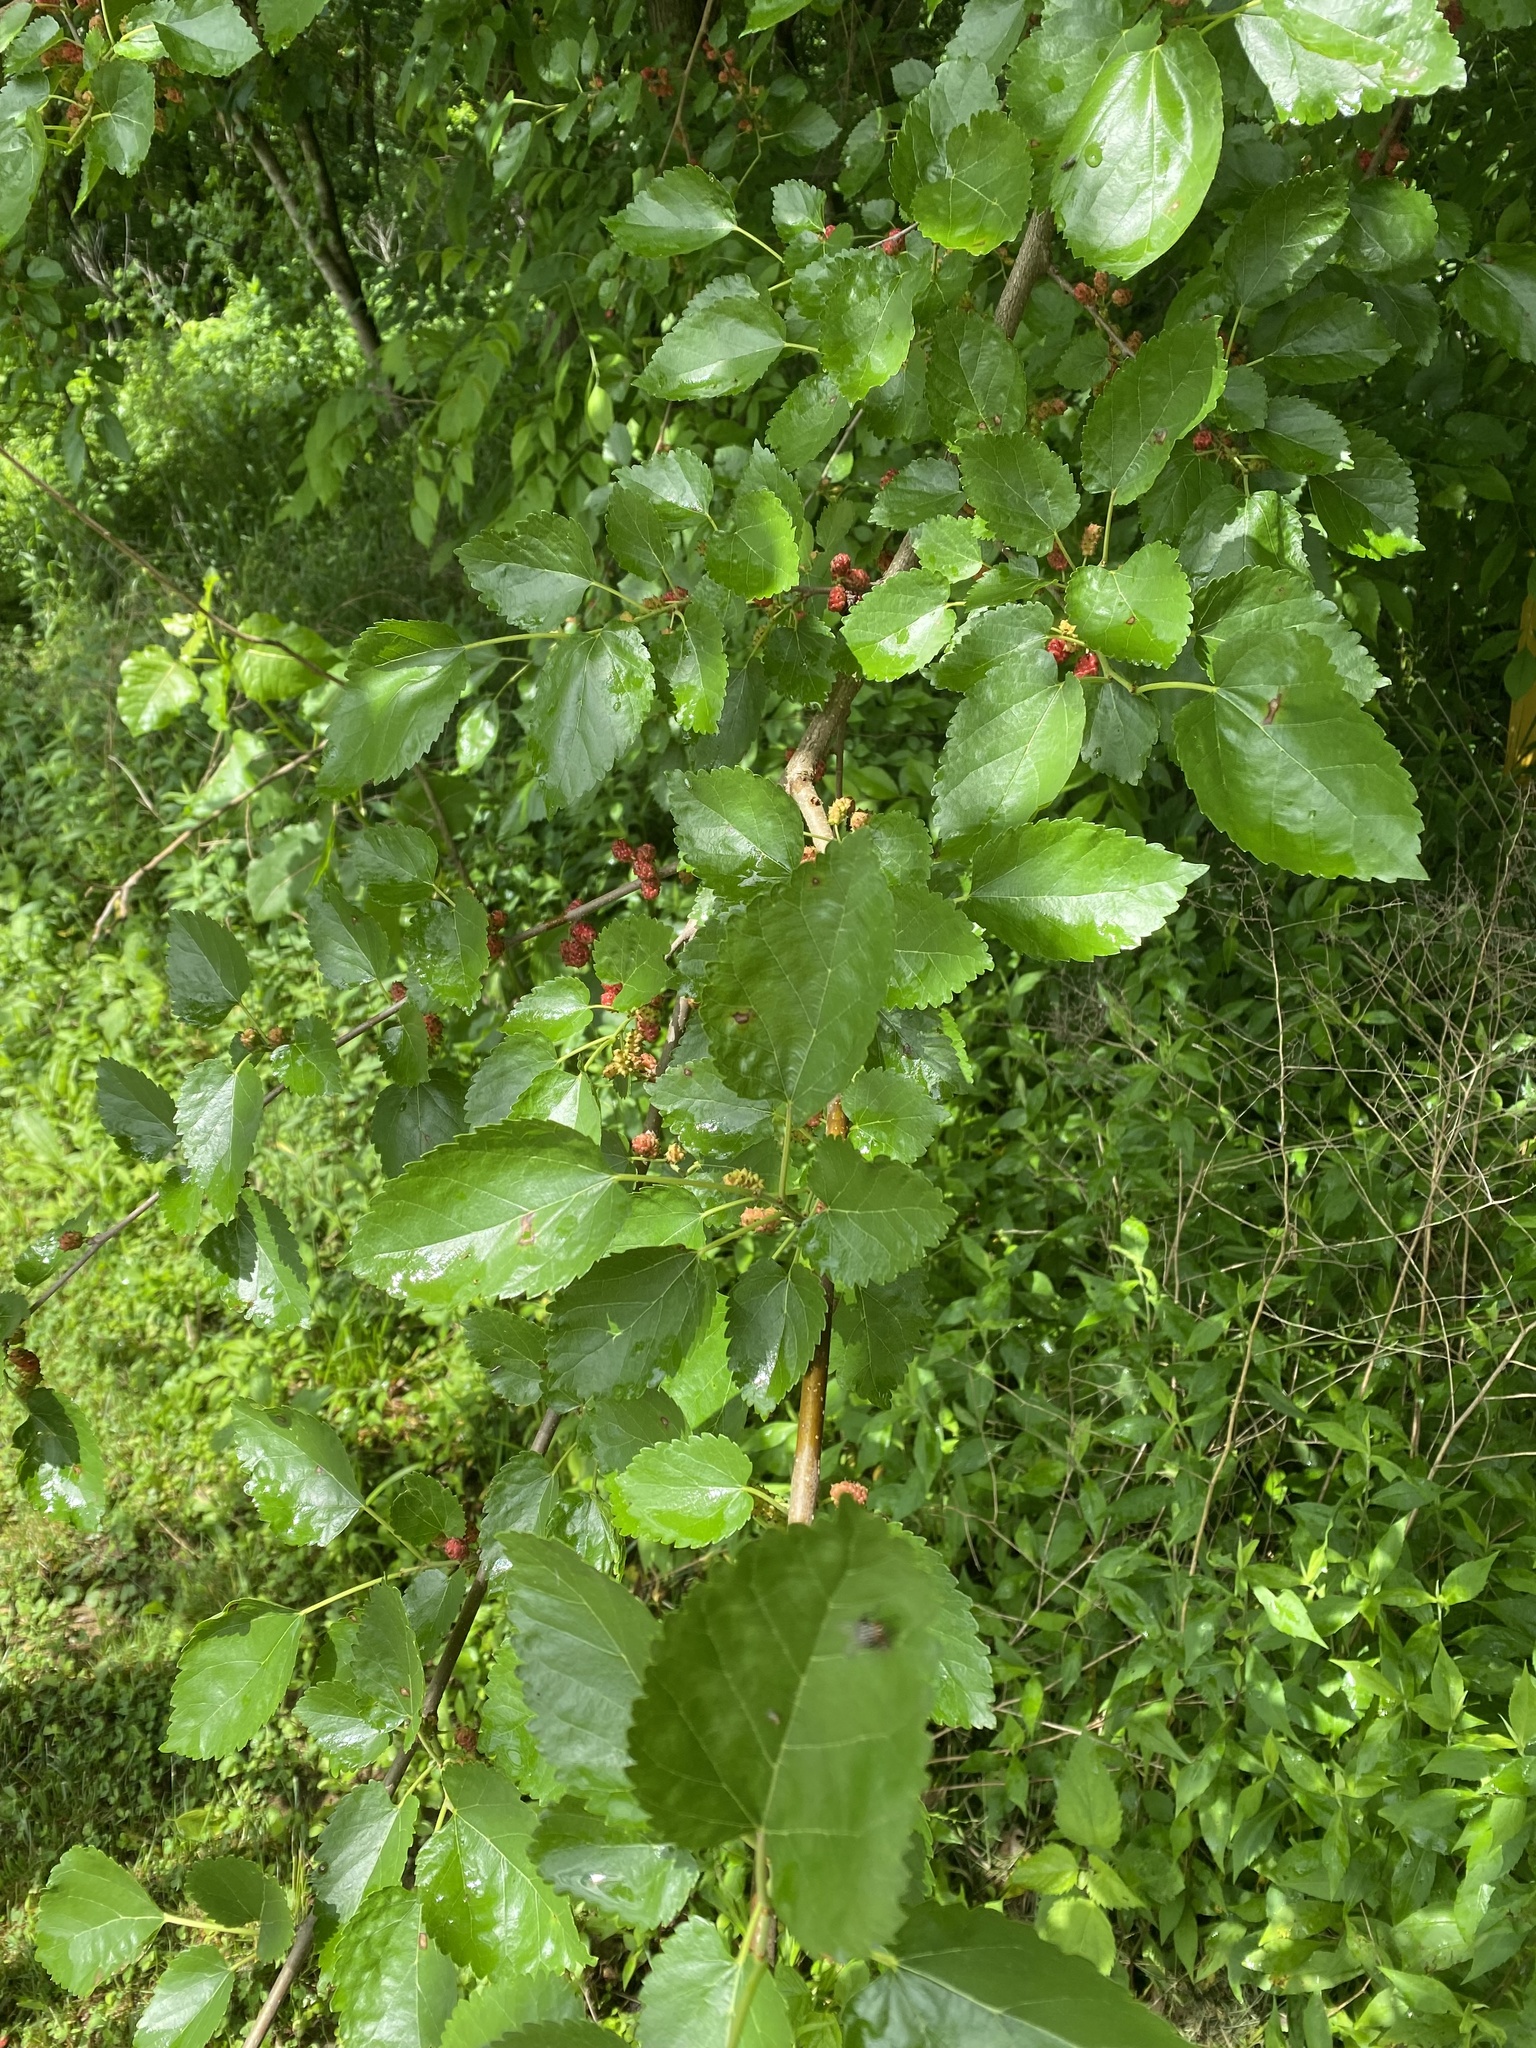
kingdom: Plantae
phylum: Tracheophyta
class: Magnoliopsida
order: Rosales
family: Moraceae
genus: Morus
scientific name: Morus alba
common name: White mulberry
